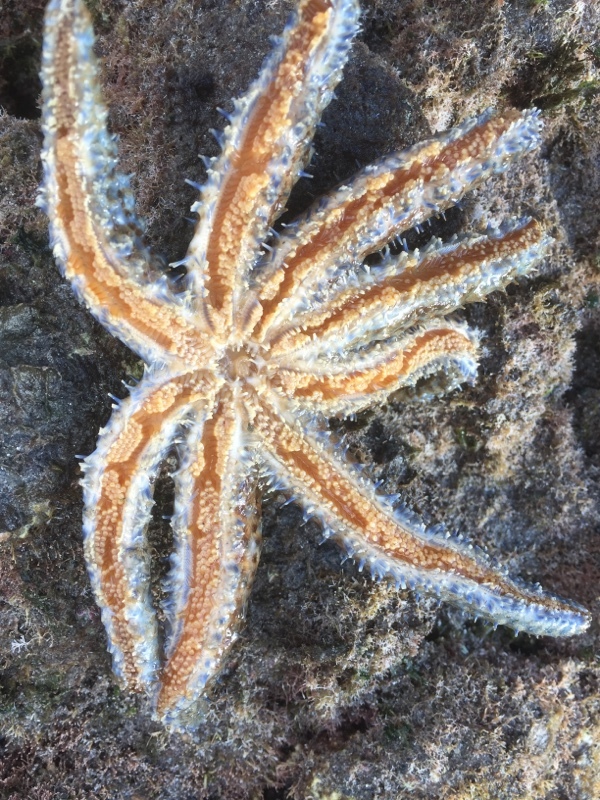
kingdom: Animalia
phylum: Echinodermata
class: Asteroidea
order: Forcipulatida
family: Asteriidae
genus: Coscinasterias
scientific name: Coscinasterias tenuispina
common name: Blue spiny starfish
